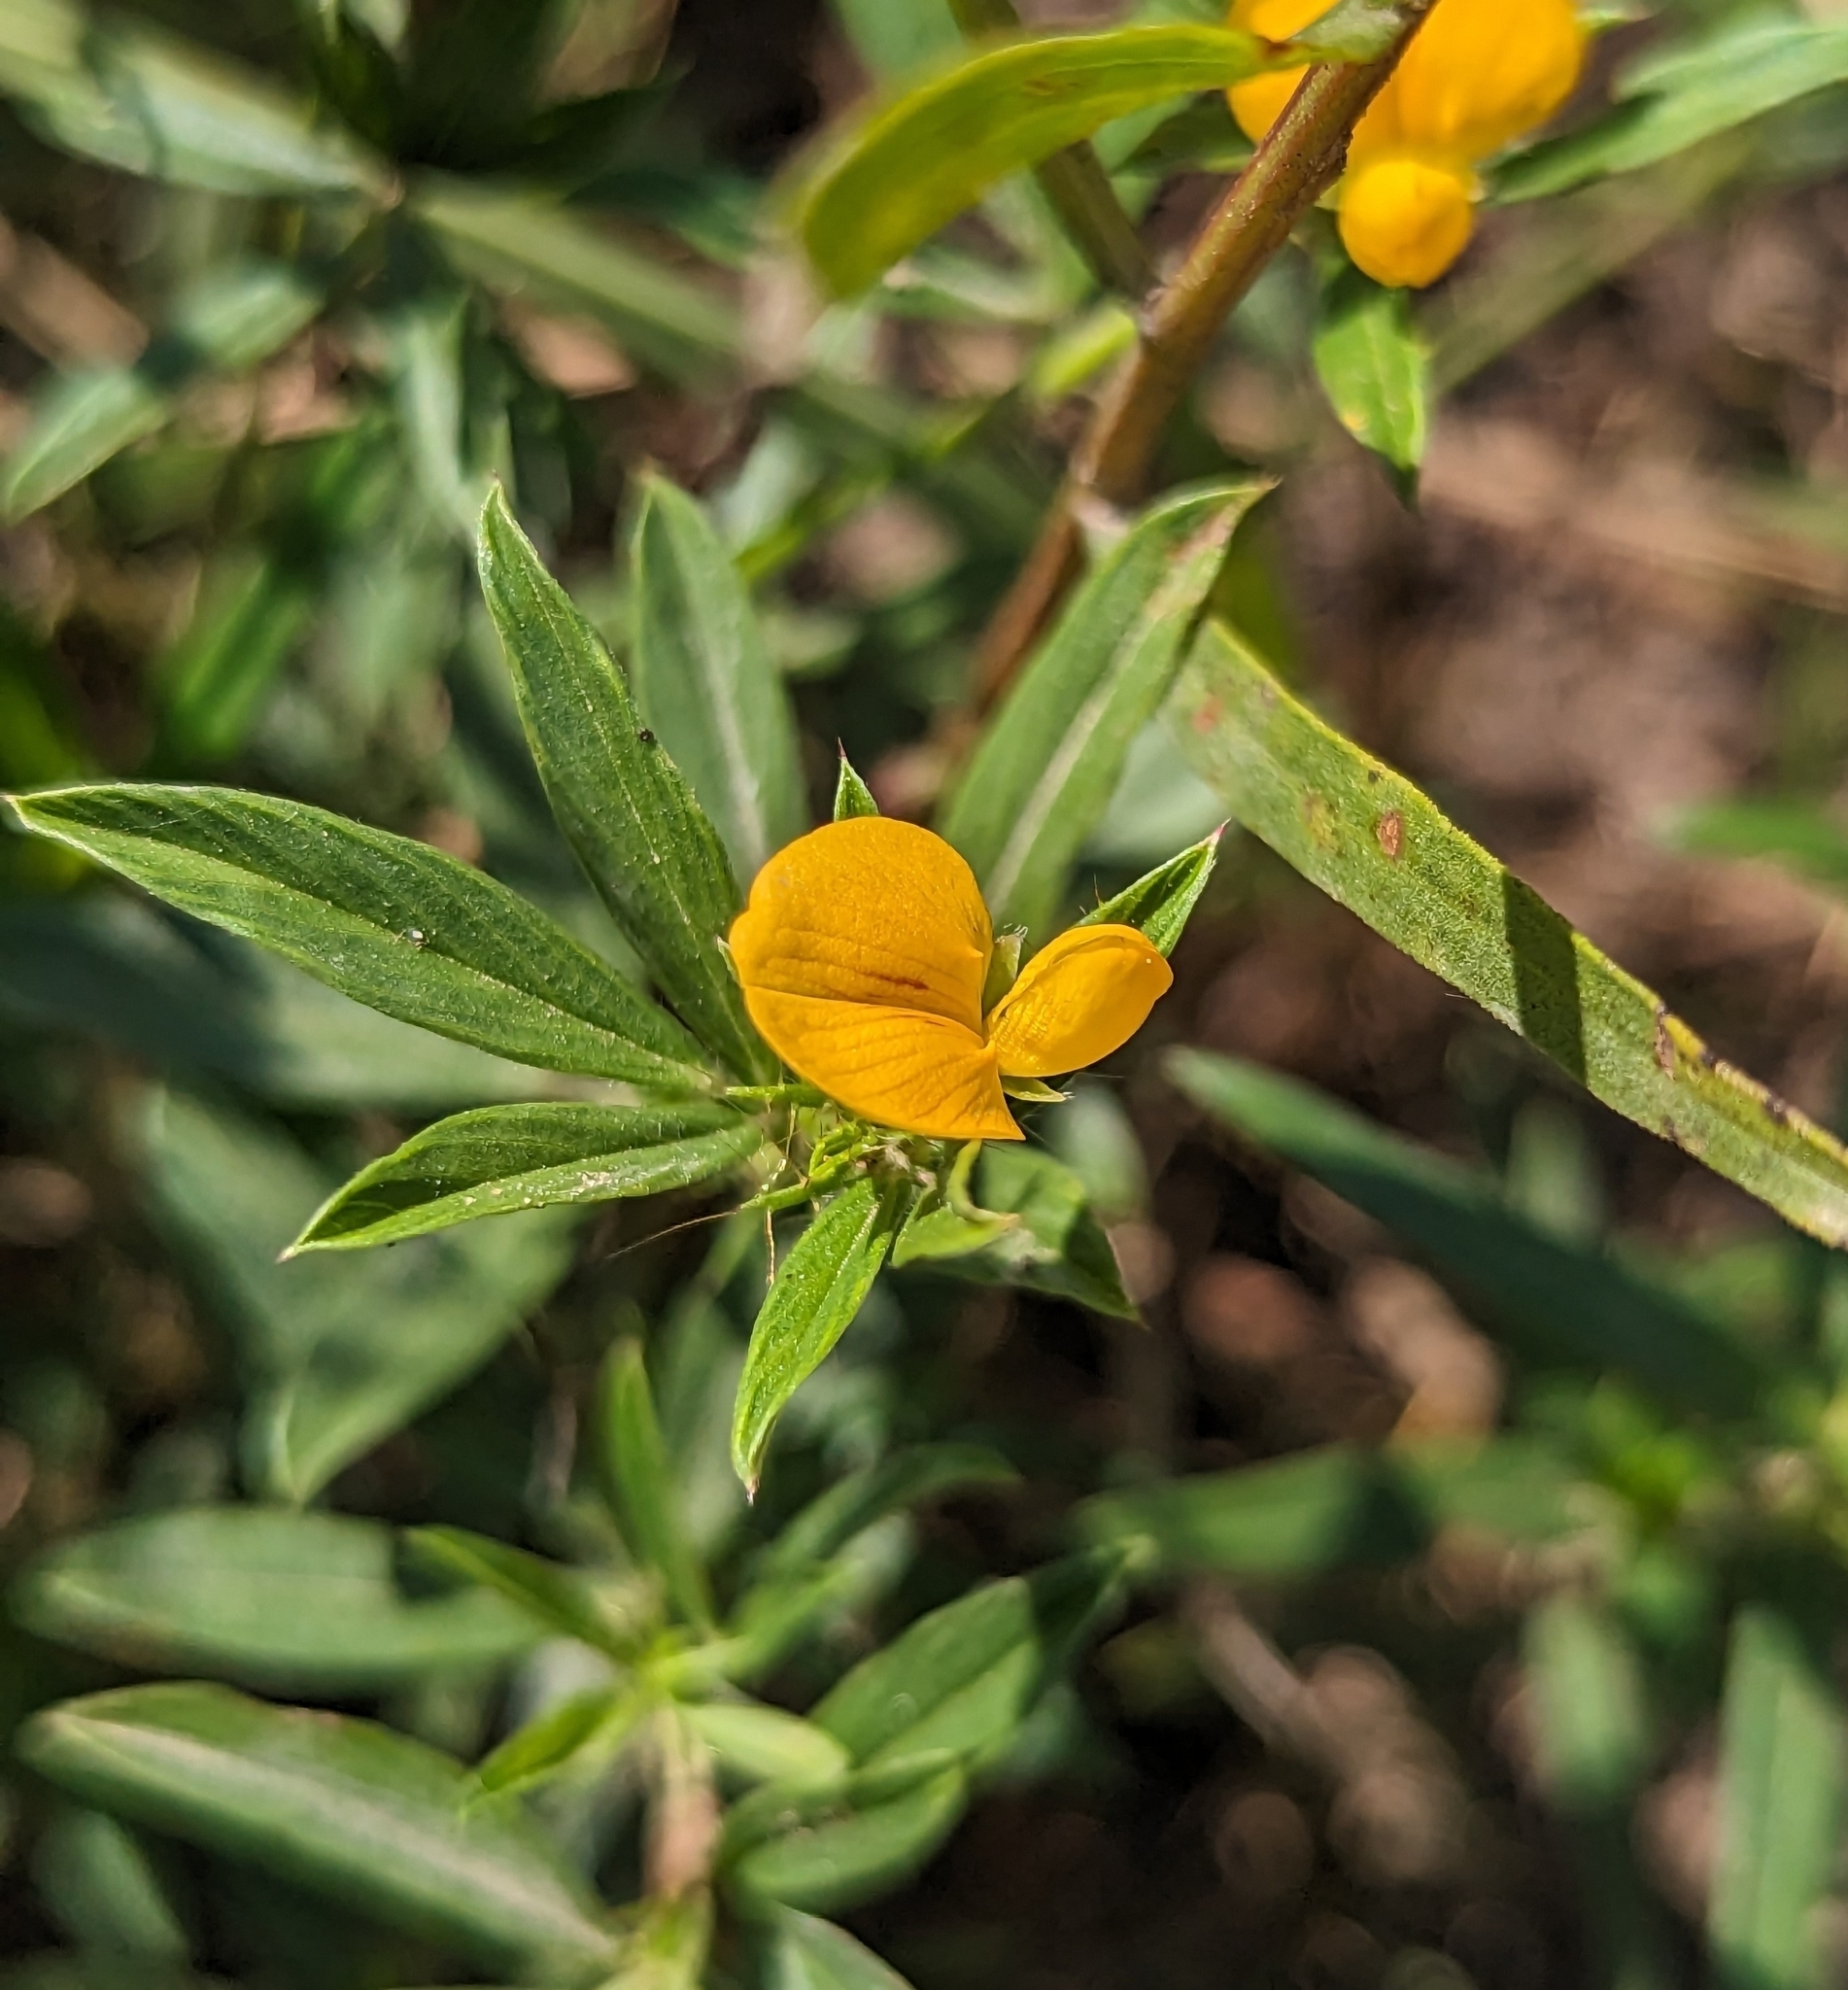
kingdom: Plantae
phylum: Tracheophyta
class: Magnoliopsida
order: Fabales
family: Fabaceae
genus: Stylosanthes
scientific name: Stylosanthes biflora
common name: Two-flower pencil-flower
